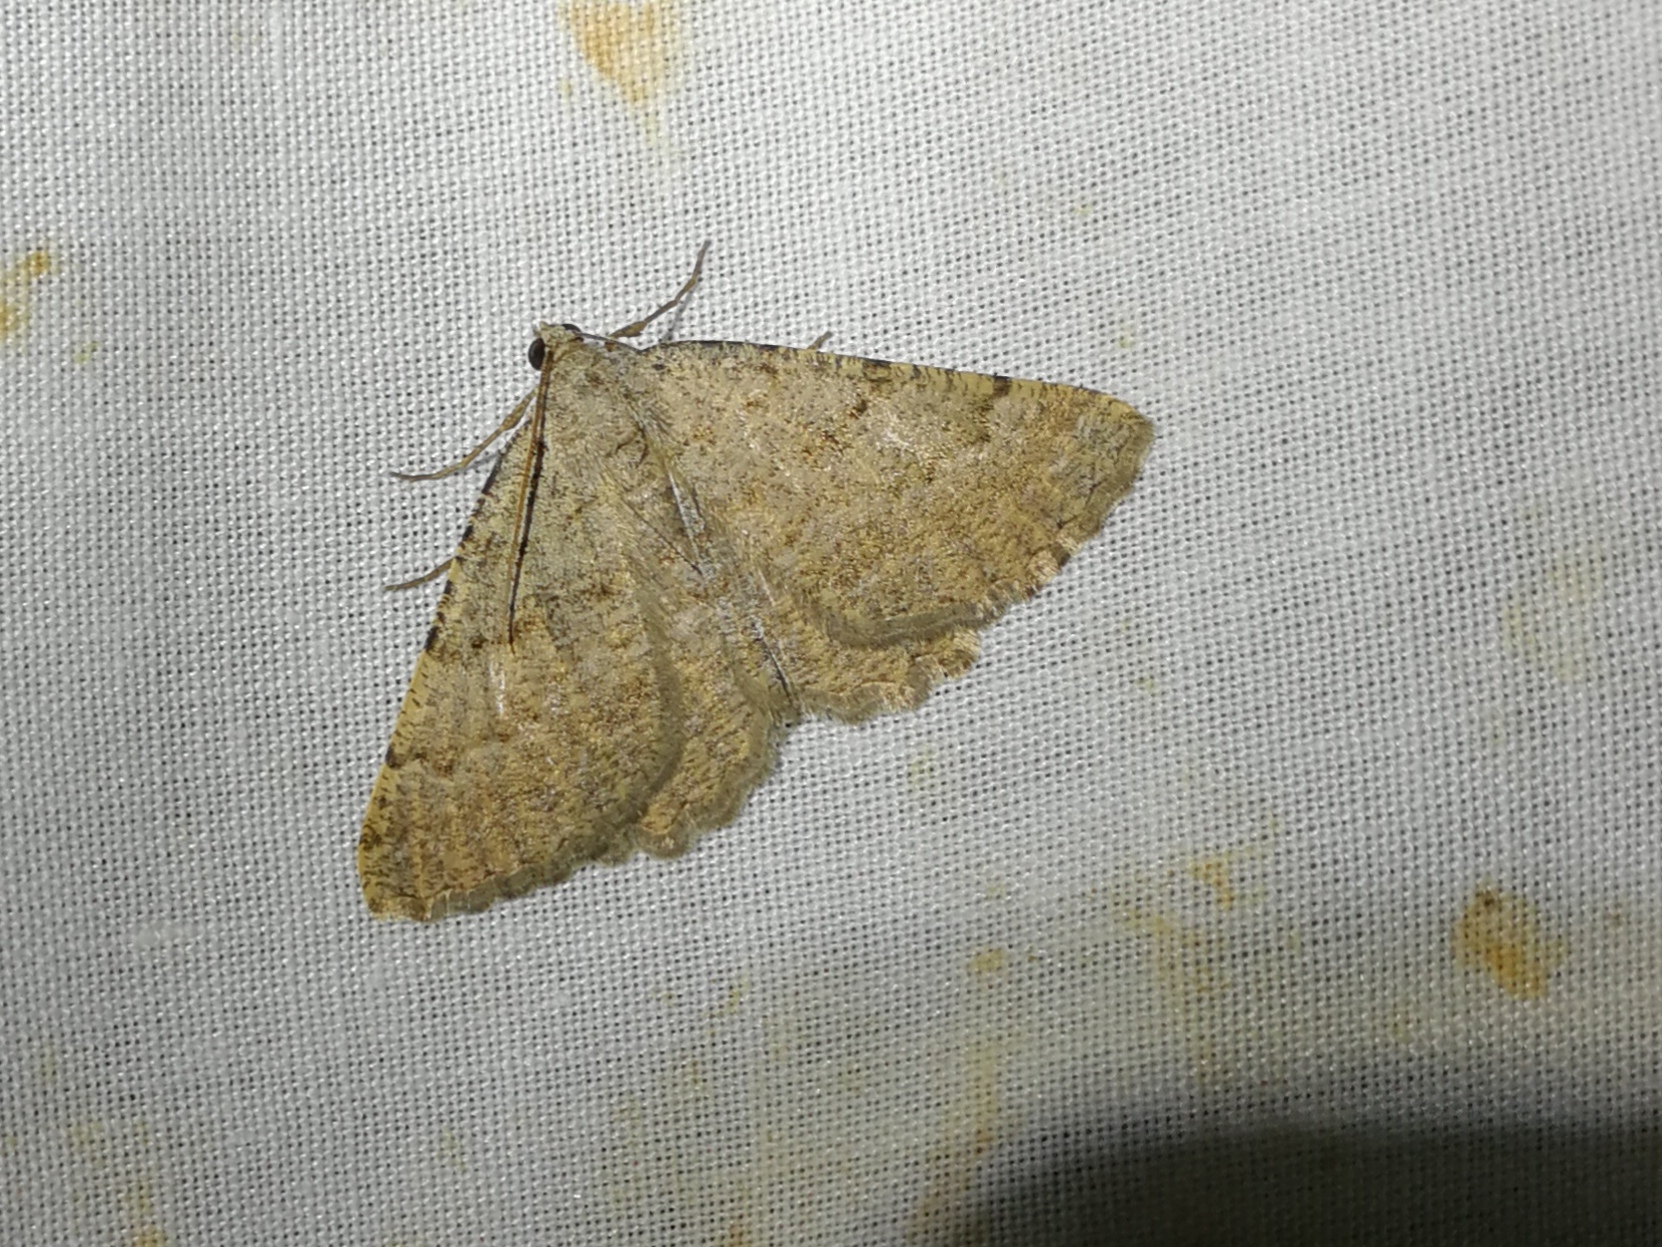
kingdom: Animalia
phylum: Arthropoda
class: Insecta
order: Lepidoptera
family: Geometridae
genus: Ortaliella
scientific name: Ortaliella
